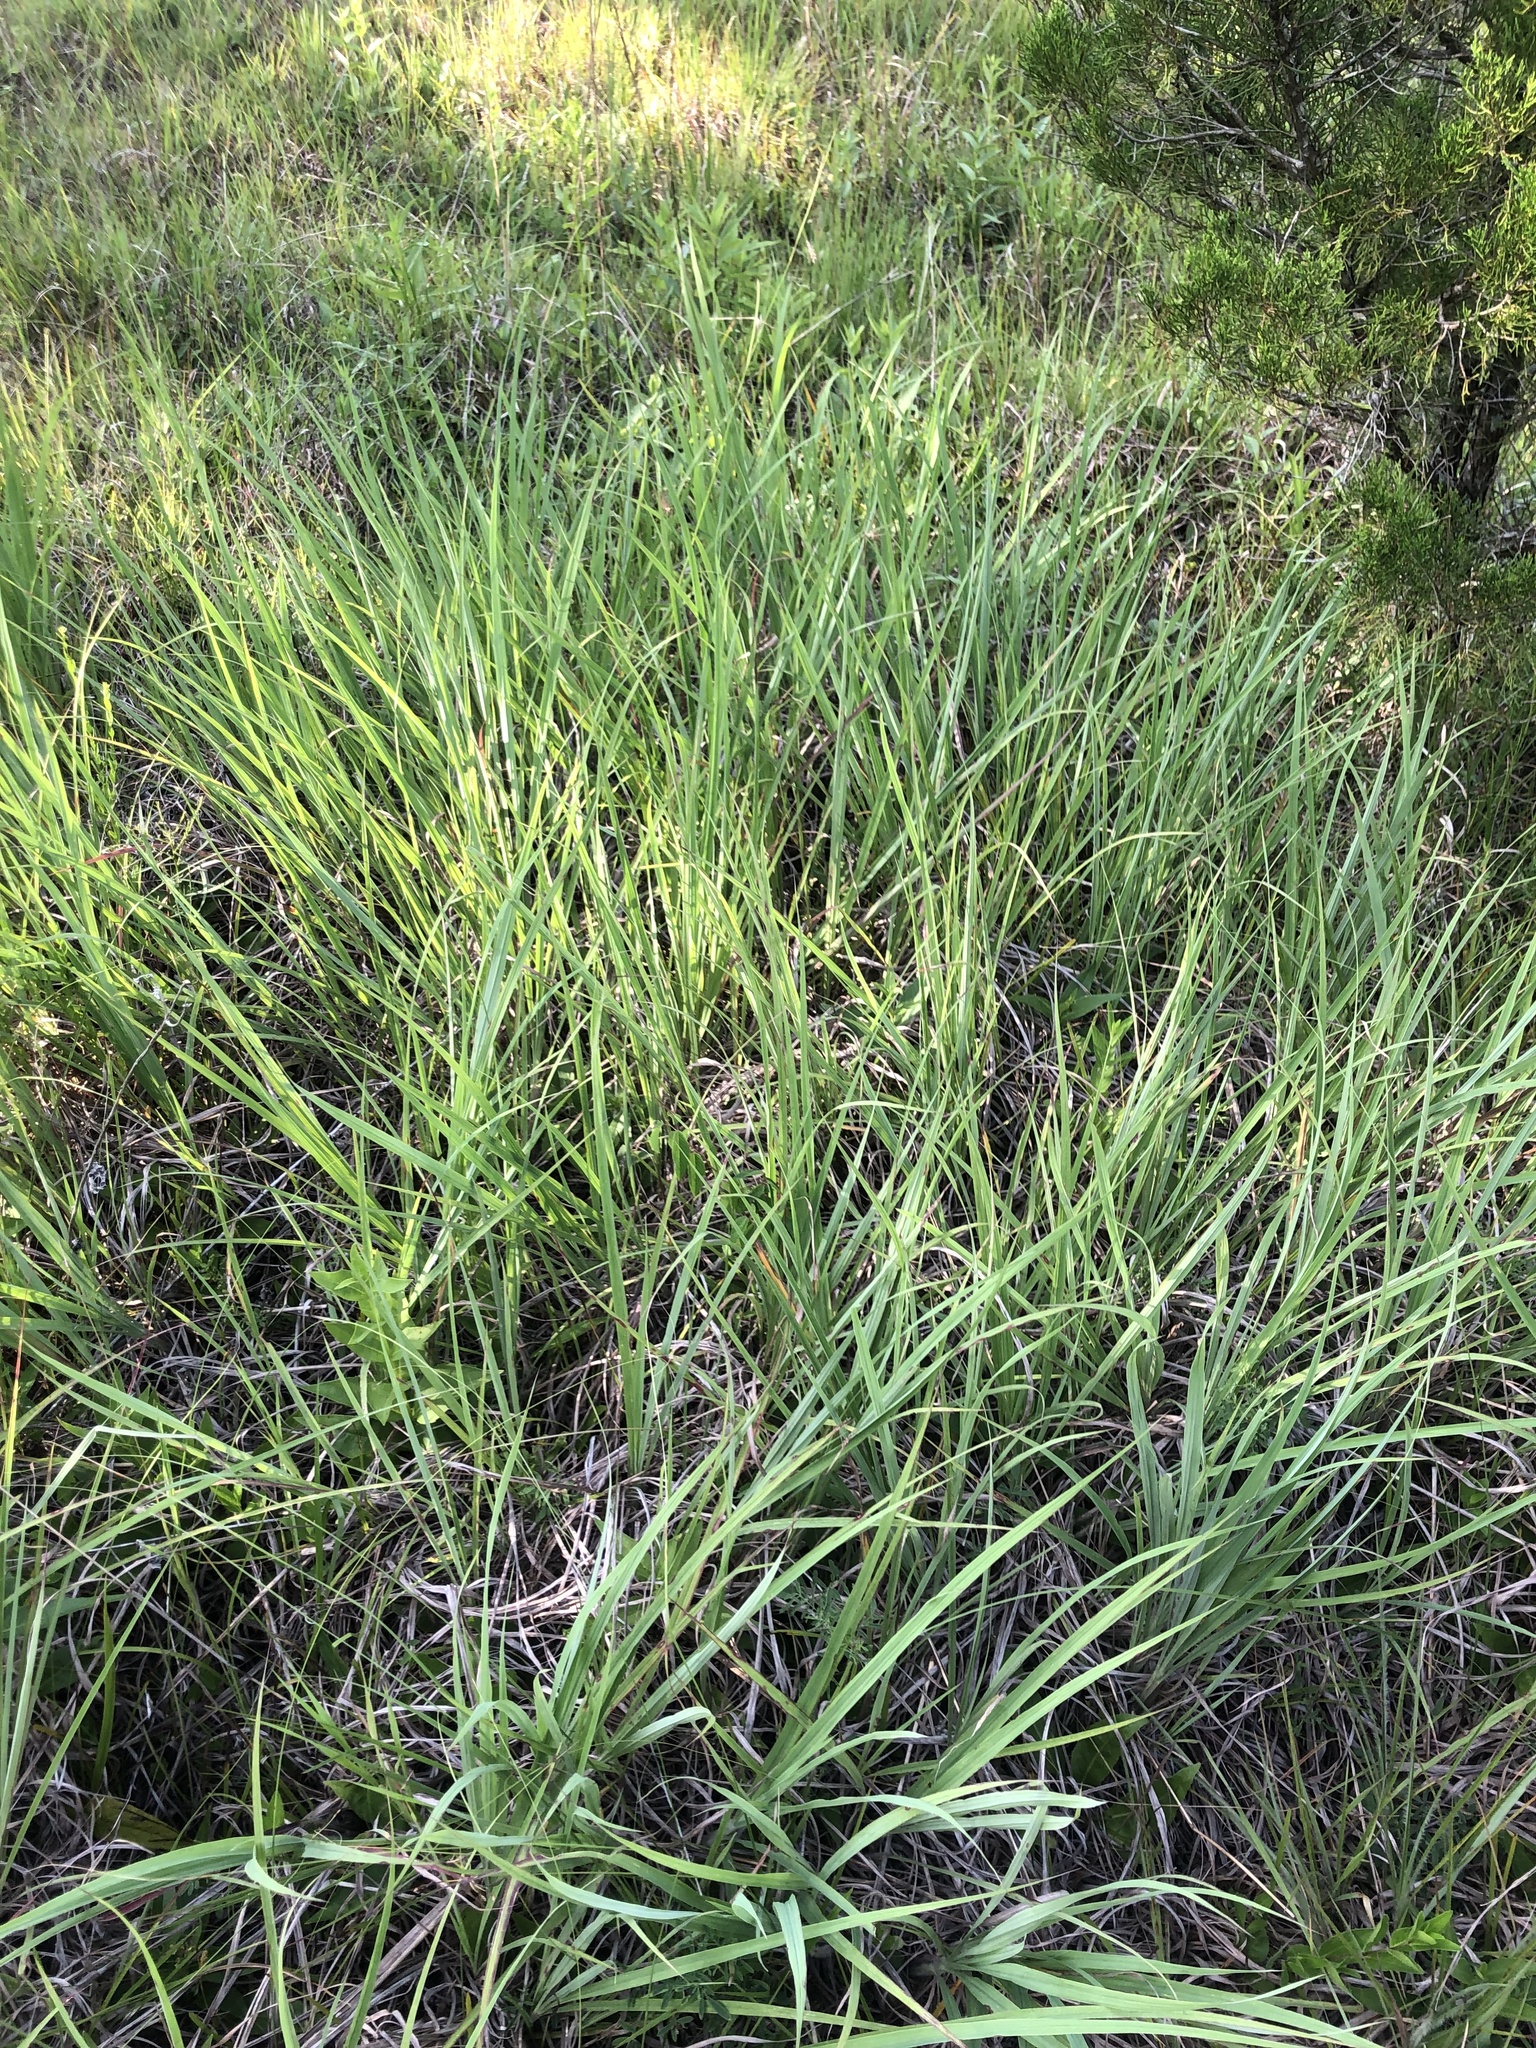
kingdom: Plantae
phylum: Tracheophyta
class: Liliopsida
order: Poales
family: Poaceae
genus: Andropogon
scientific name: Andropogon gerardi
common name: Big bluestem
